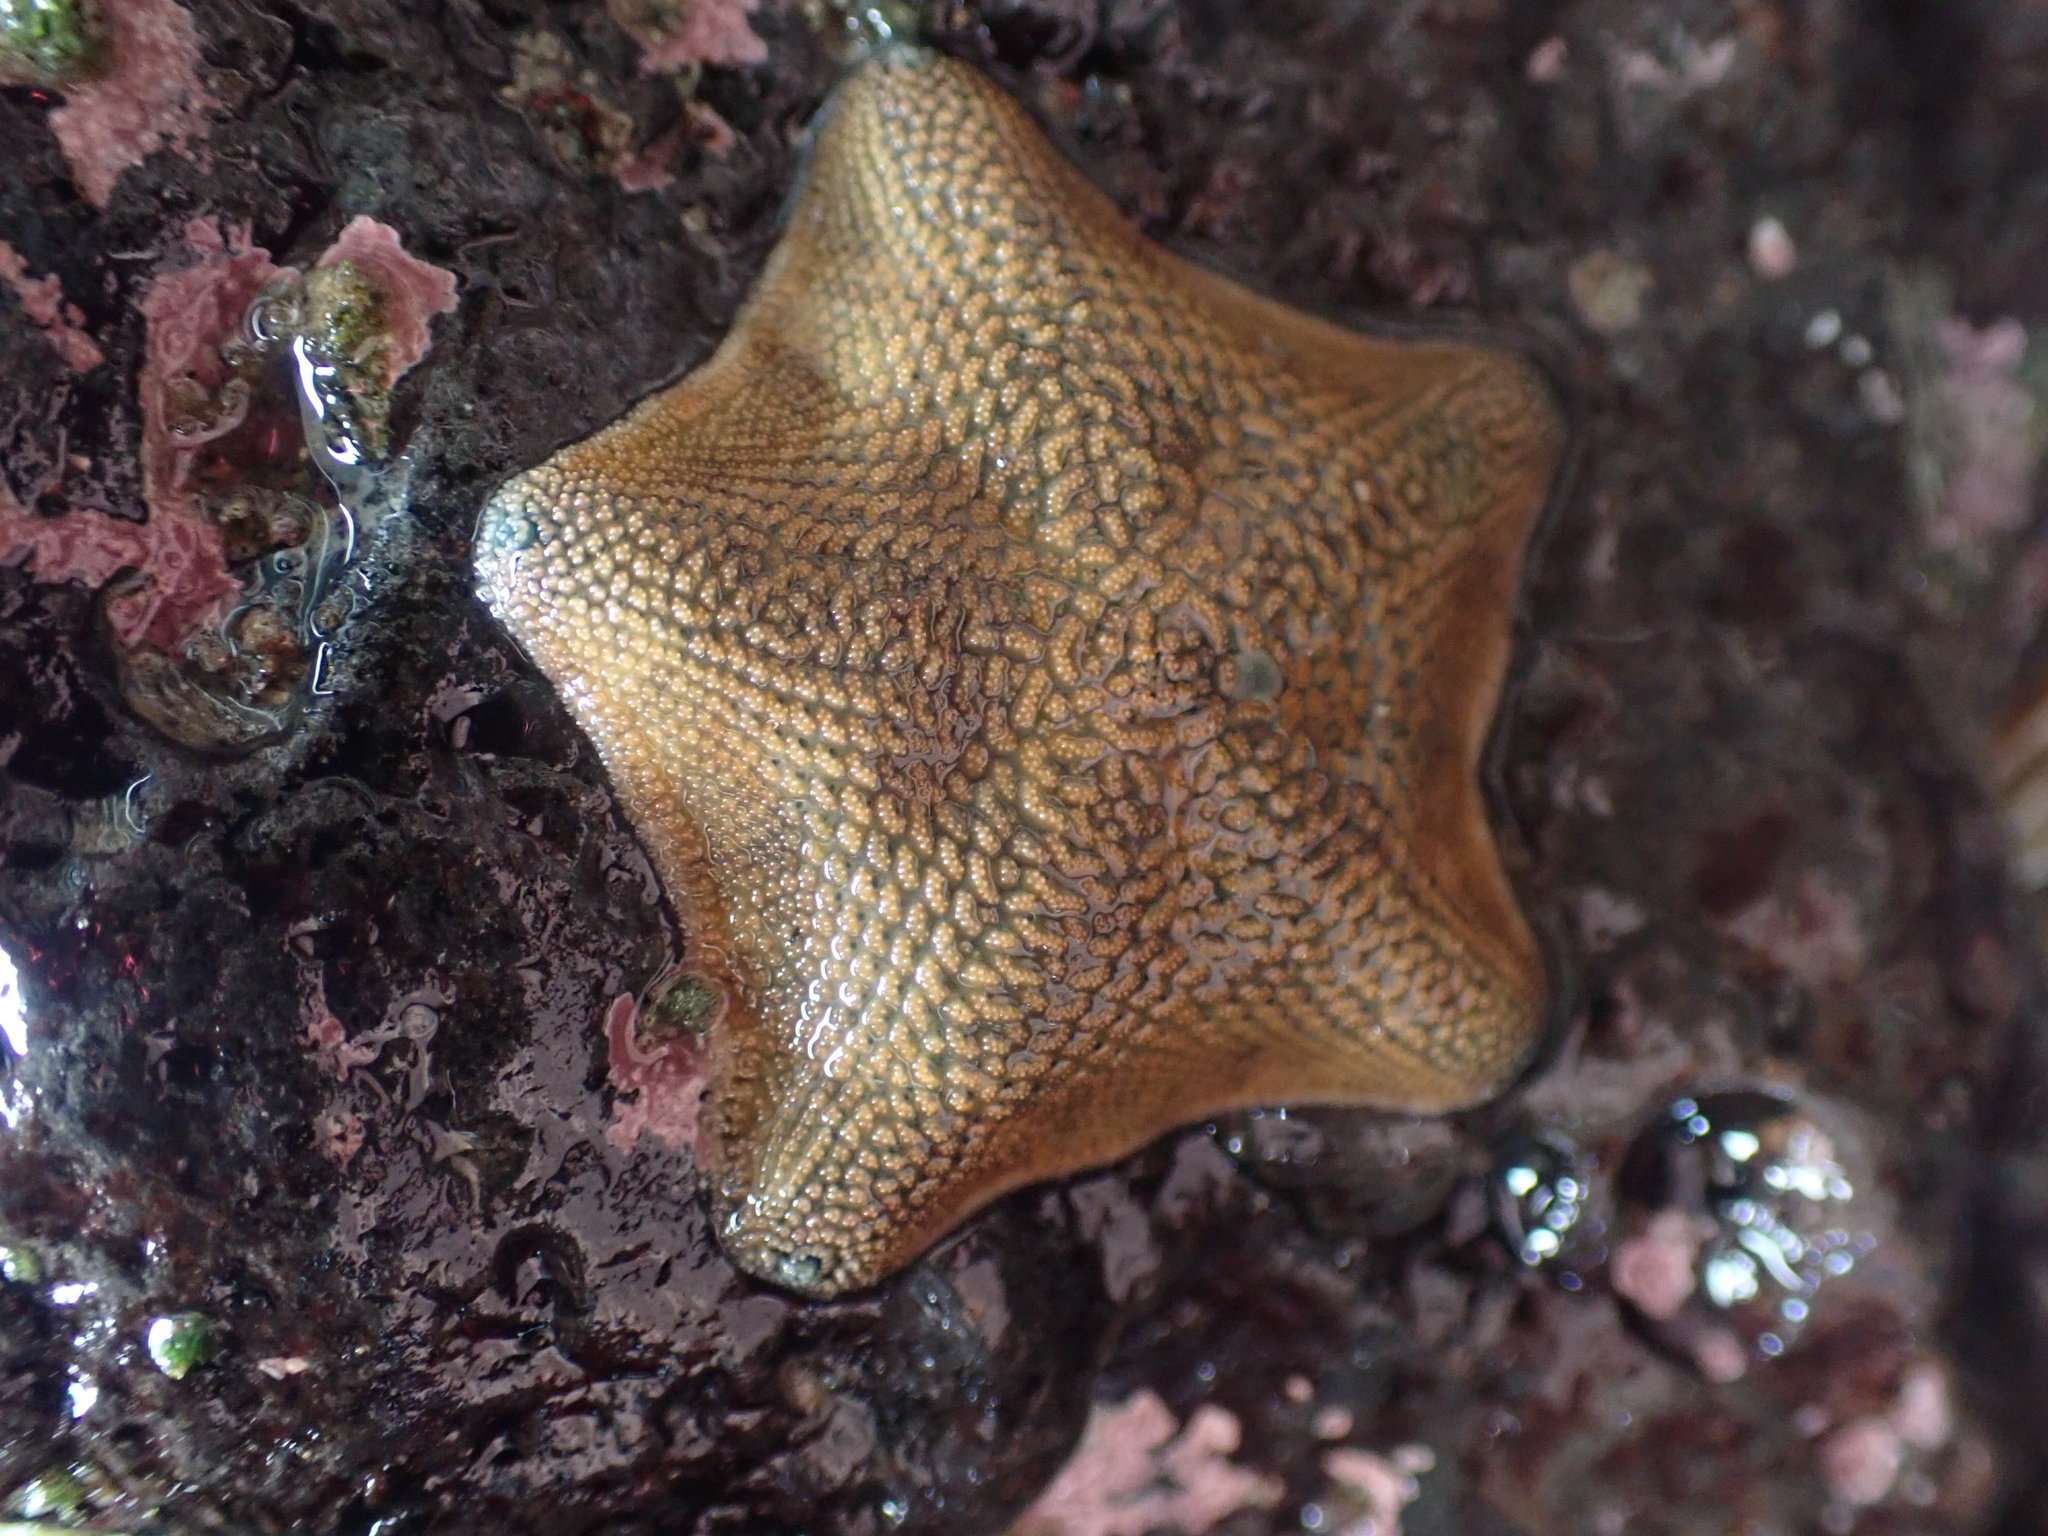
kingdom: Animalia
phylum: Echinodermata
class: Asteroidea
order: Valvatida
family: Asterinidae
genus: Patiriella
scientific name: Patiriella regularis
